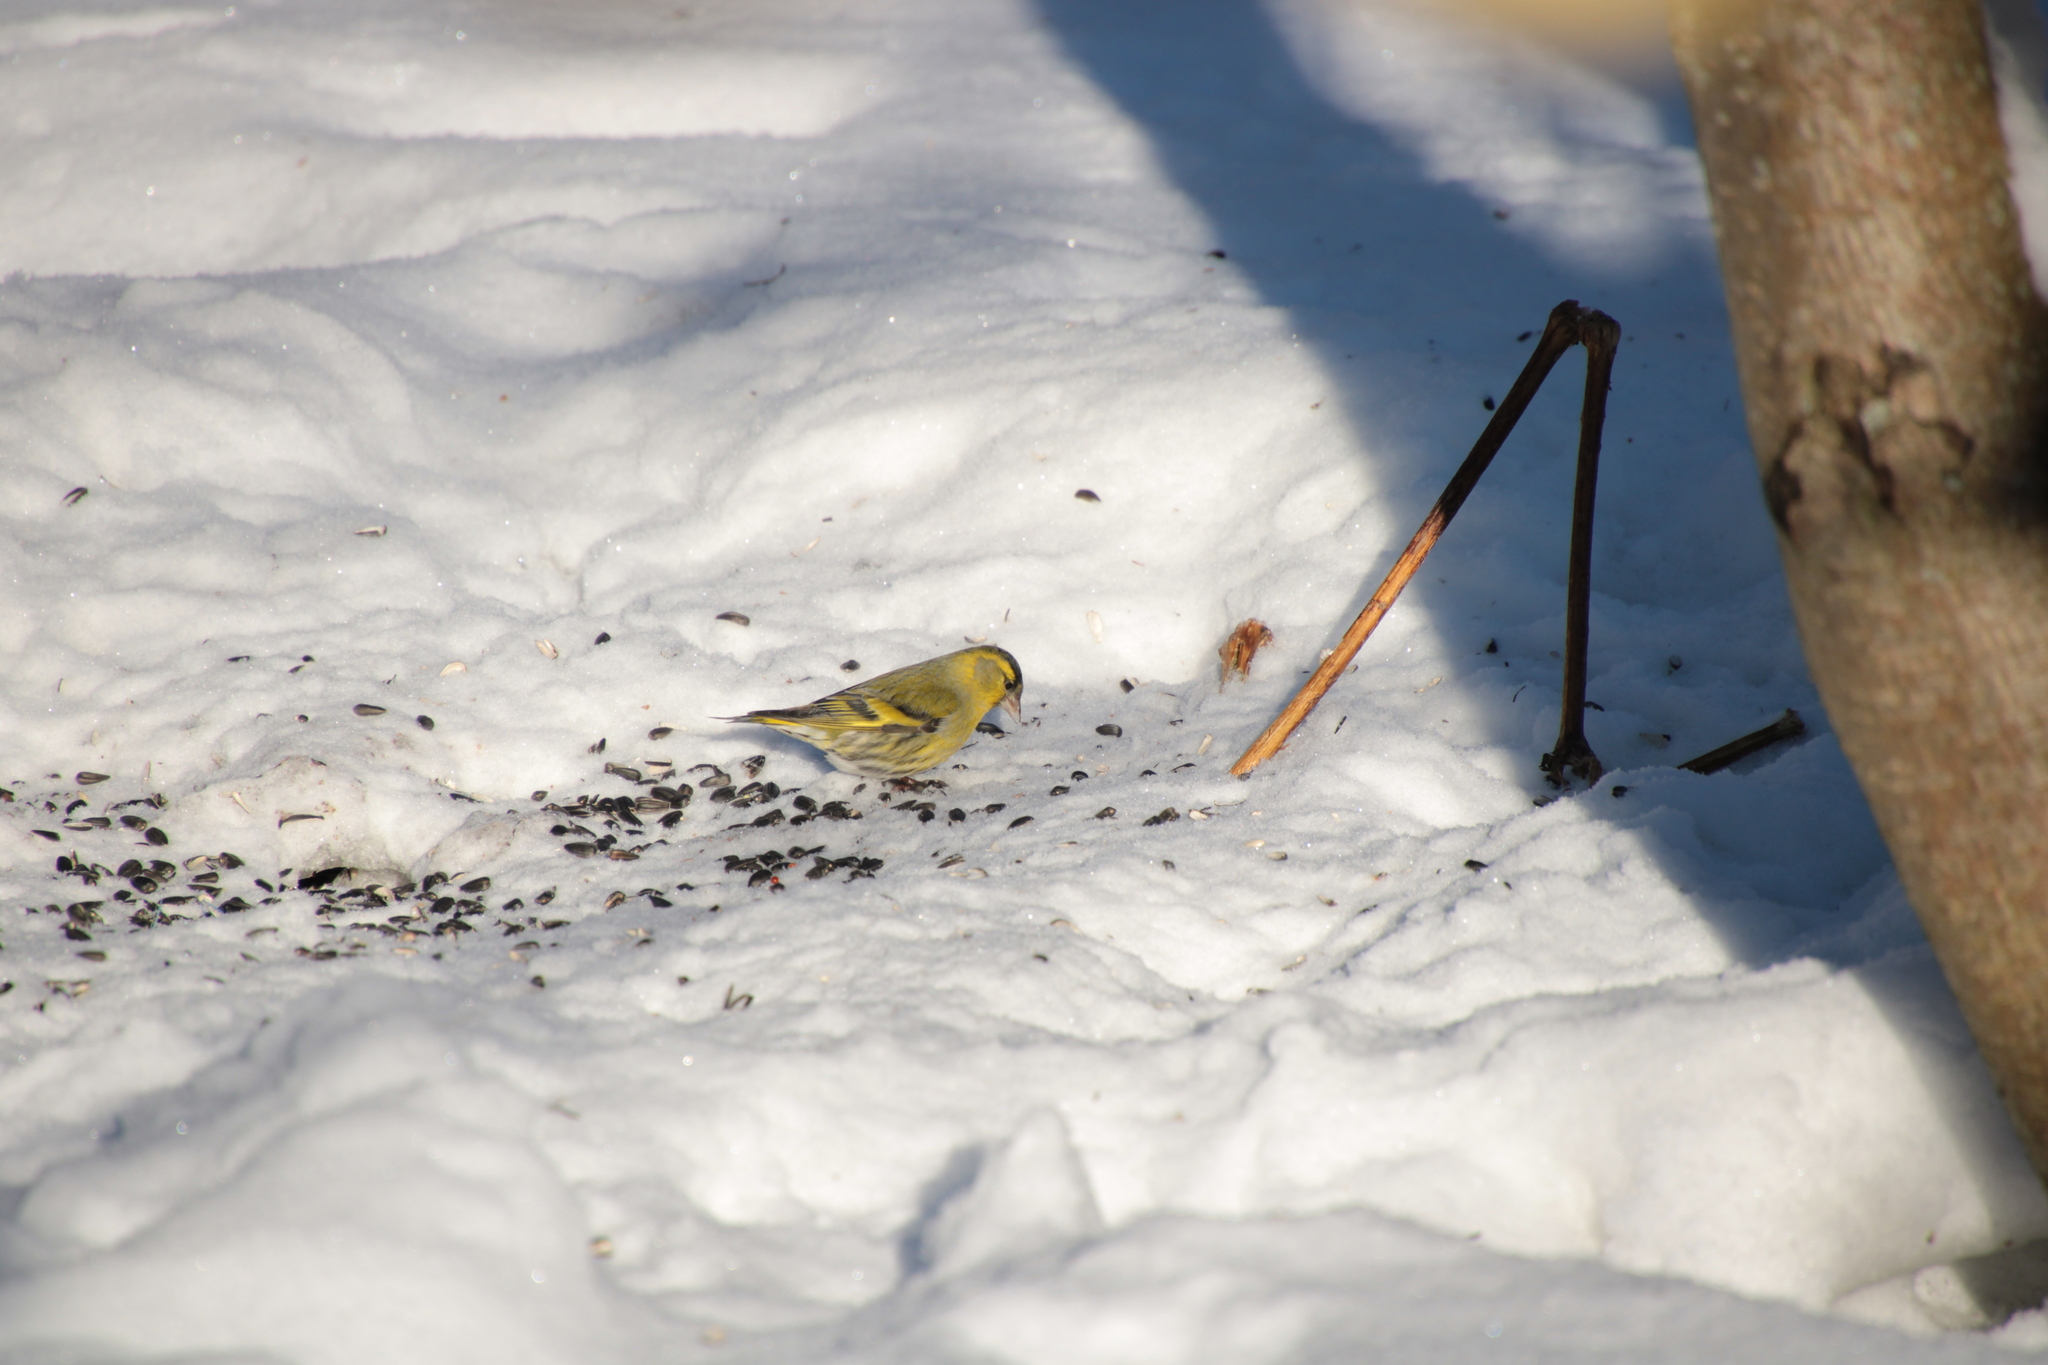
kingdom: Animalia
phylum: Chordata
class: Aves
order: Passeriformes
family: Fringillidae
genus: Spinus
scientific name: Spinus spinus
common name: Eurasian siskin
